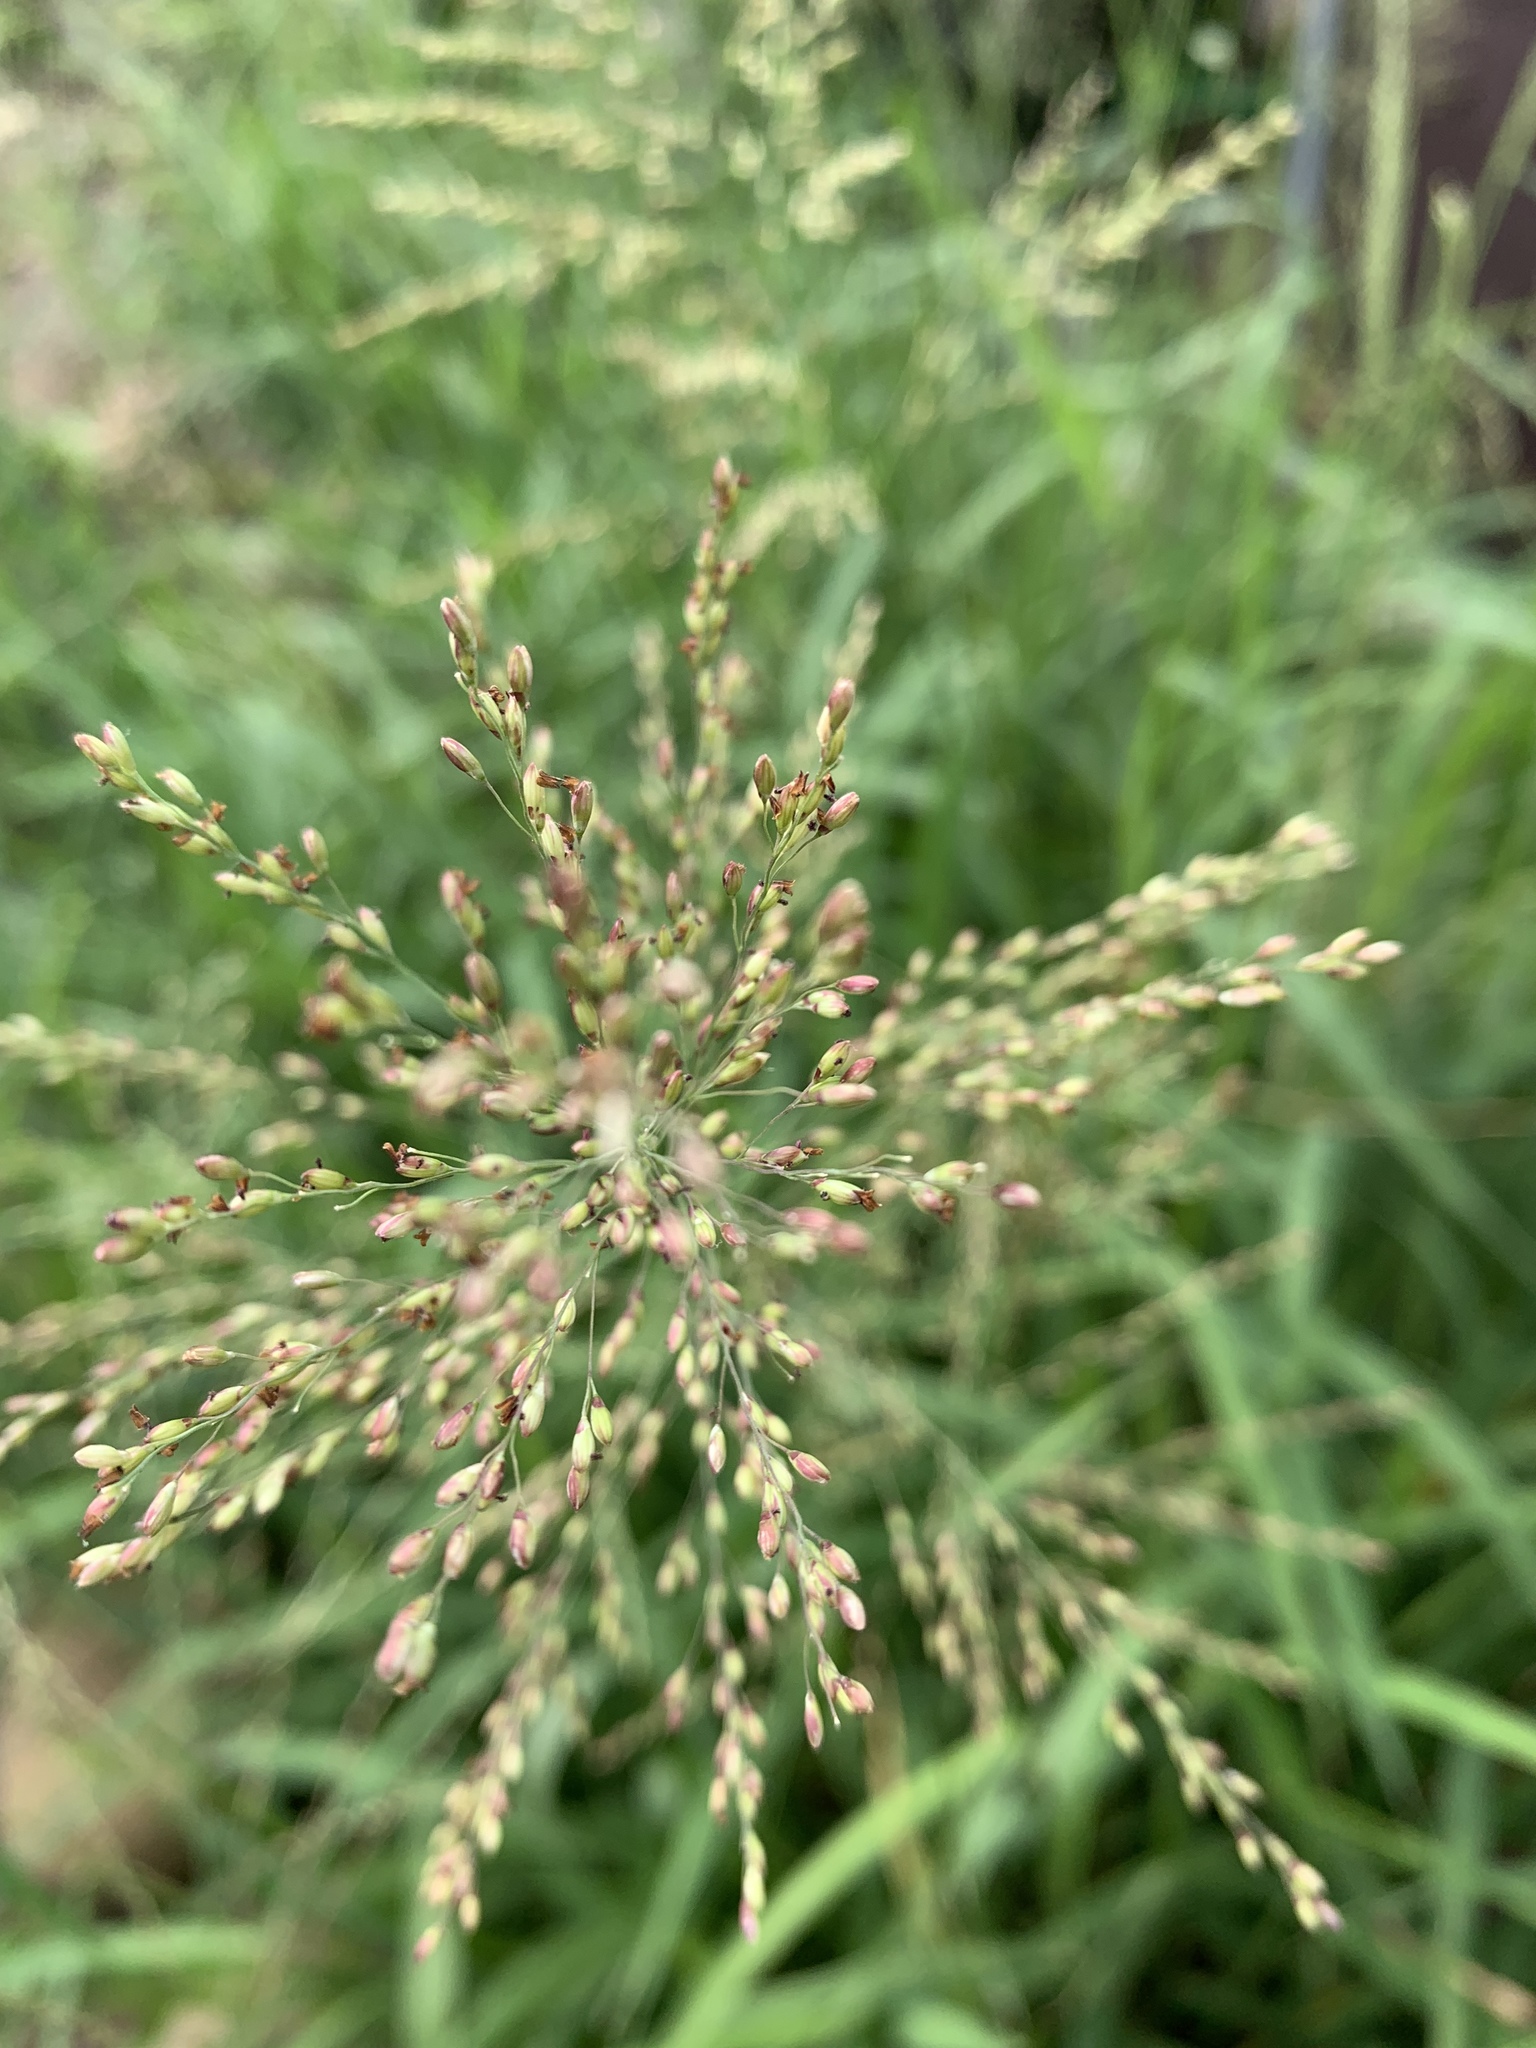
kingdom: Plantae
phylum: Tracheophyta
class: Liliopsida
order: Poales
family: Poaceae
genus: Megathyrsus
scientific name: Megathyrsus maximus
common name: Guineagrass
